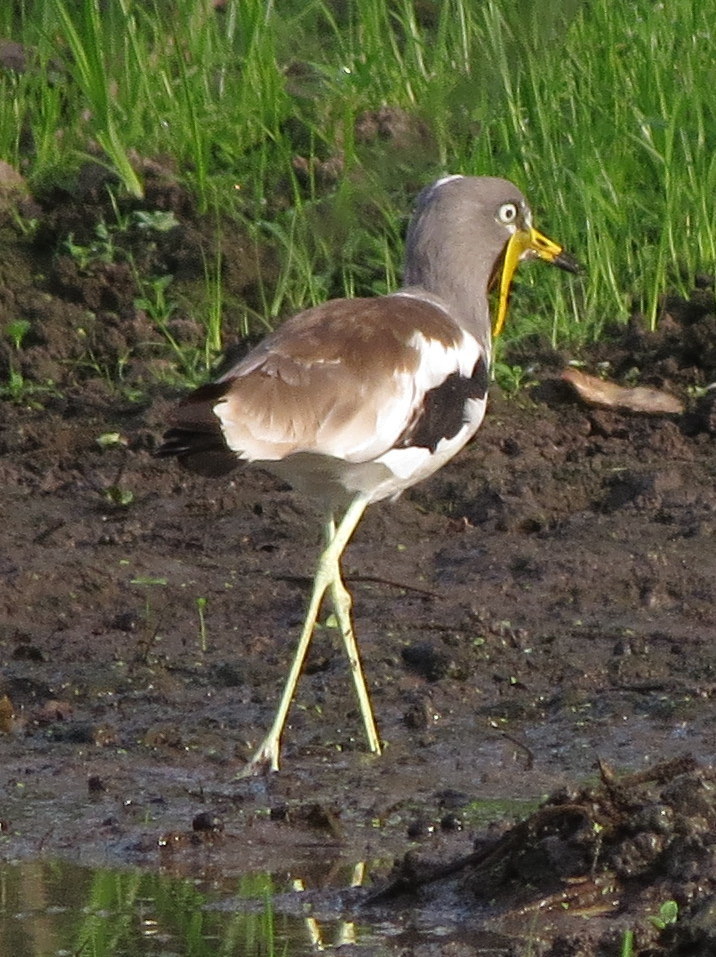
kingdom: Animalia
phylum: Chordata
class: Aves
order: Charadriiformes
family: Charadriidae
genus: Vanellus
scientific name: Vanellus albiceps
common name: White-crowned lapwing
